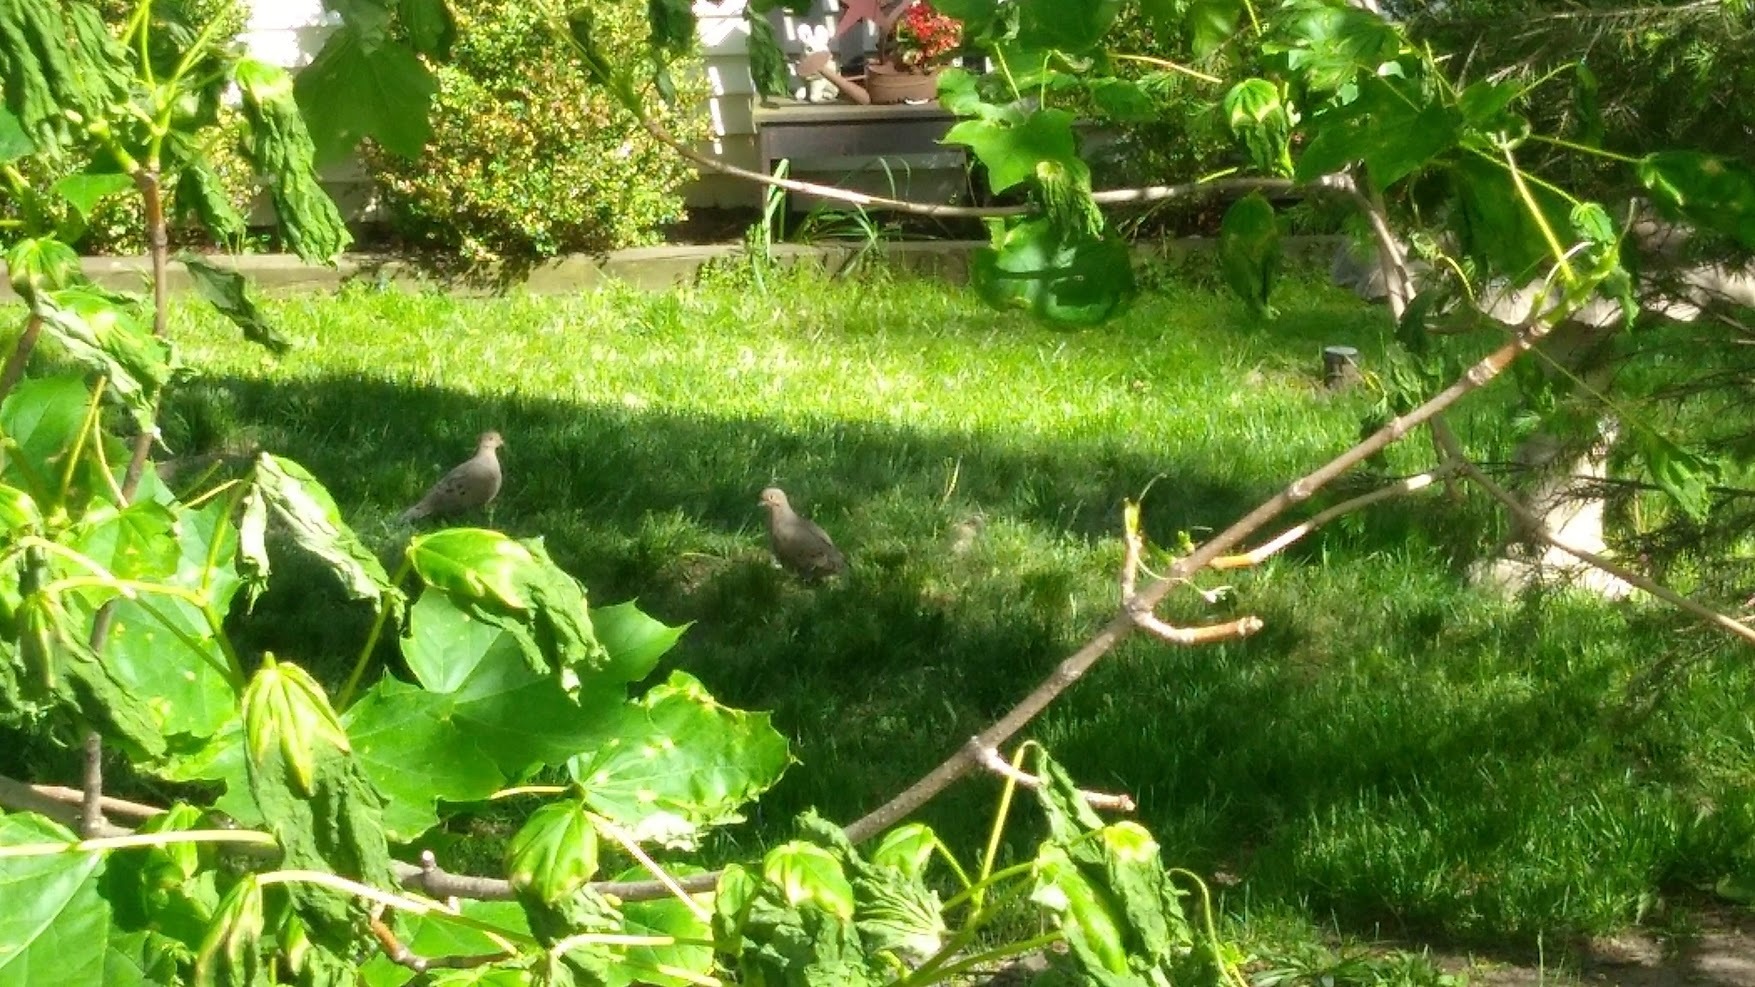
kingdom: Animalia
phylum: Chordata
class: Aves
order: Columbiformes
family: Columbidae
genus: Zenaida
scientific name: Zenaida macroura
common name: Mourning dove
